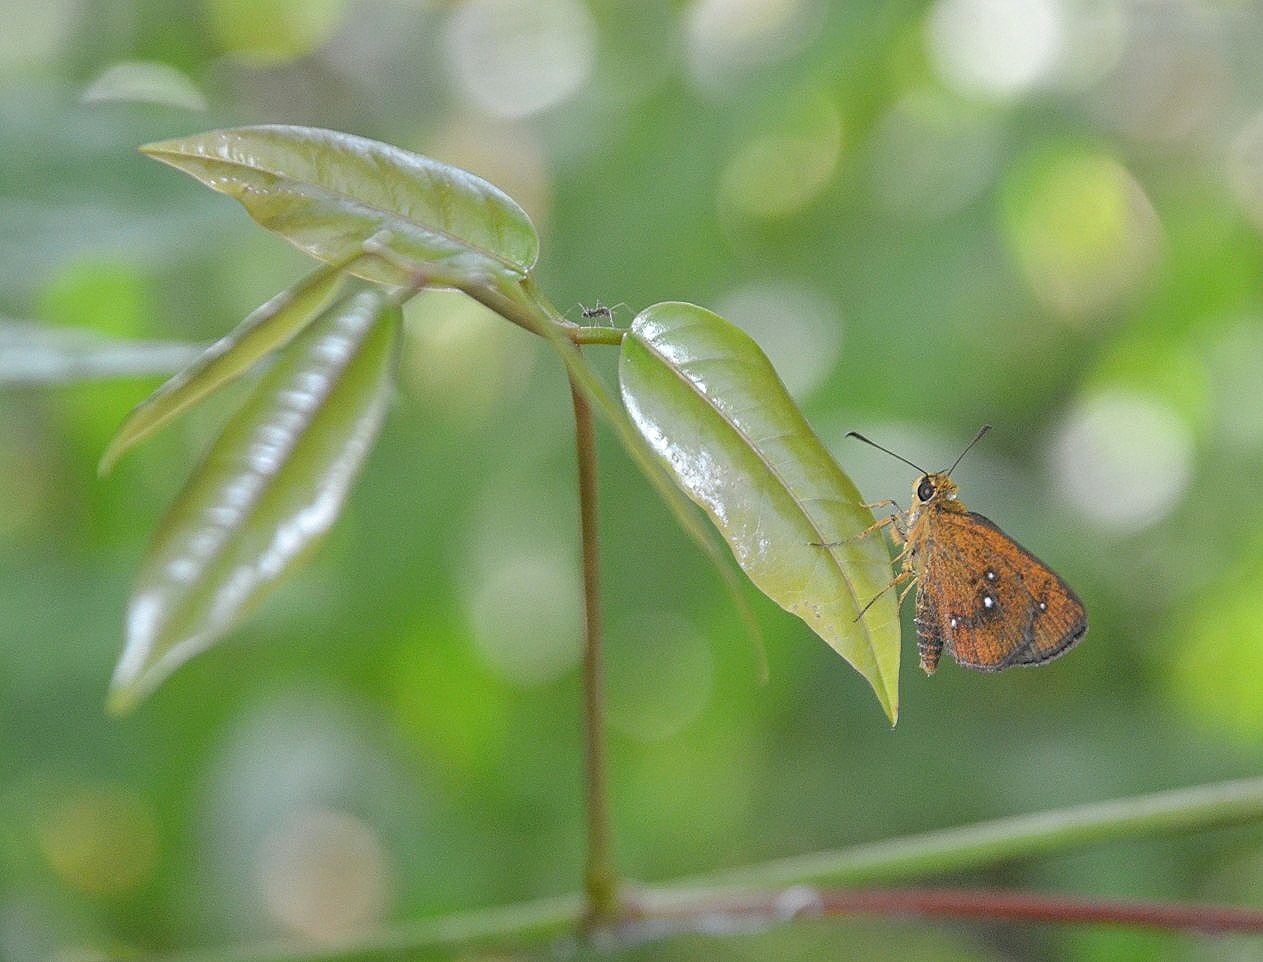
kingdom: Animalia
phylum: Arthropoda
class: Insecta
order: Lepidoptera
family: Hesperiidae
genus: Iambrix
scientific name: Iambrix salsala
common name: Chestnut bob
